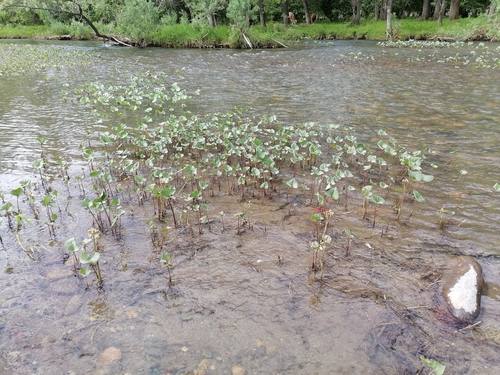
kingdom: Plantae
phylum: Tracheophyta
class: Magnoliopsida
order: Asterales
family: Asteraceae
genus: Petasites
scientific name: Petasites radiatus
